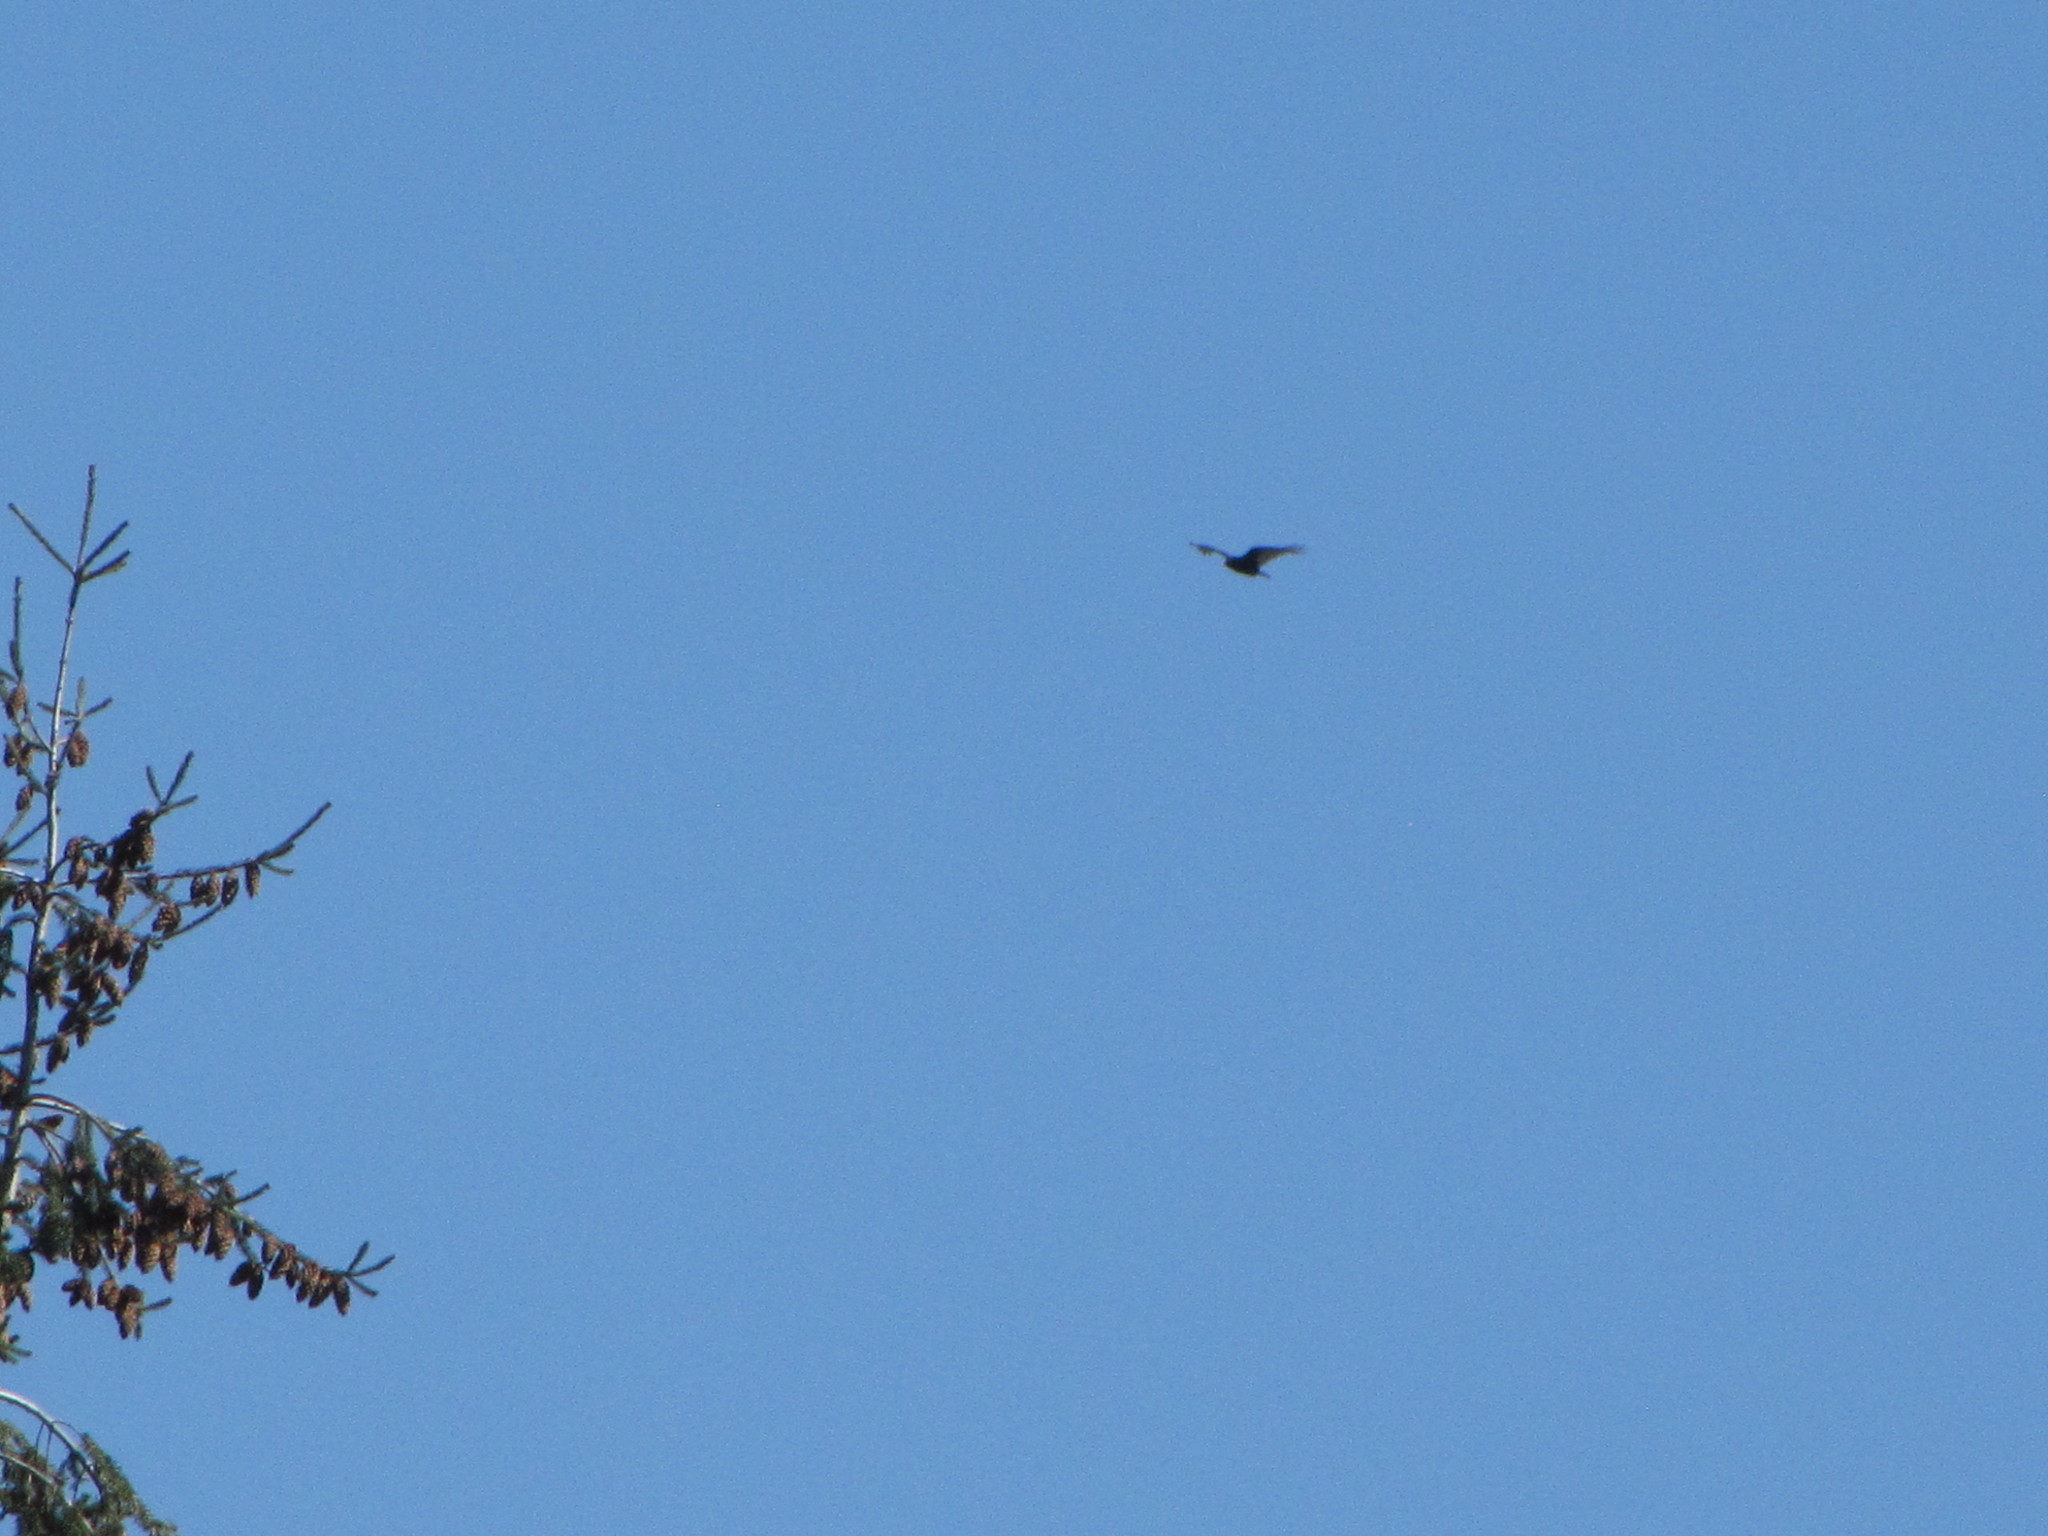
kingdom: Animalia
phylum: Chordata
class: Aves
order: Accipitriformes
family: Cathartidae
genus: Cathartes
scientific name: Cathartes aura
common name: Turkey vulture
